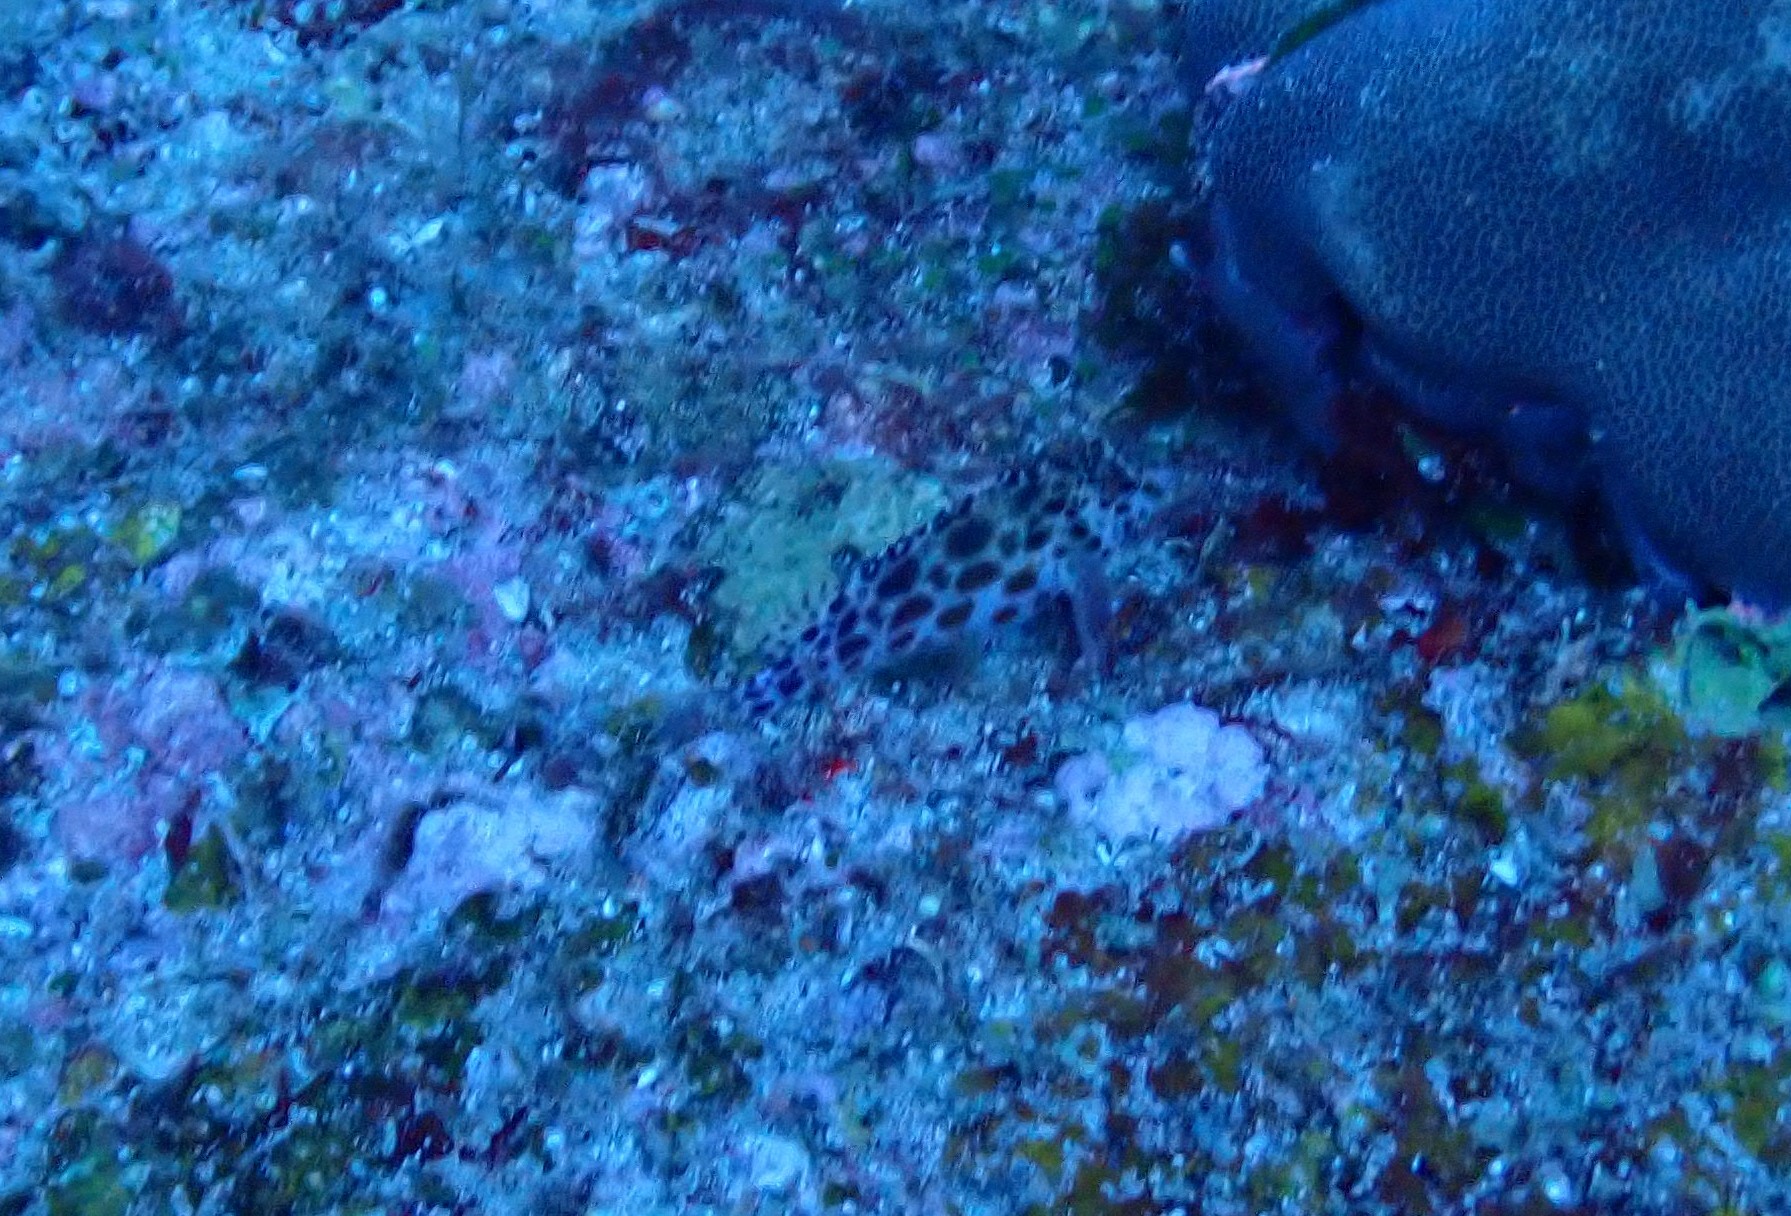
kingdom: Animalia
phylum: Chordata
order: Perciformes
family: Cirrhitidae
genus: Cirrhitichthys
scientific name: Cirrhitichthys oxycephalus
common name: Spotted hawkfish
